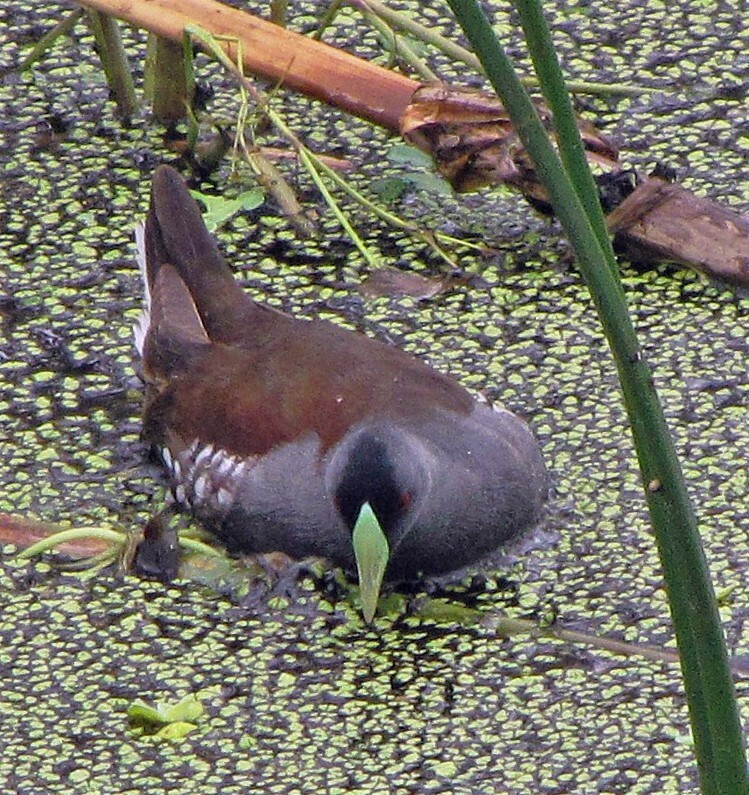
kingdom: Animalia
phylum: Chordata
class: Aves
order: Gruiformes
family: Rallidae
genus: Gallinula
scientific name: Gallinula melanops
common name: Spot-flanked gallinule
